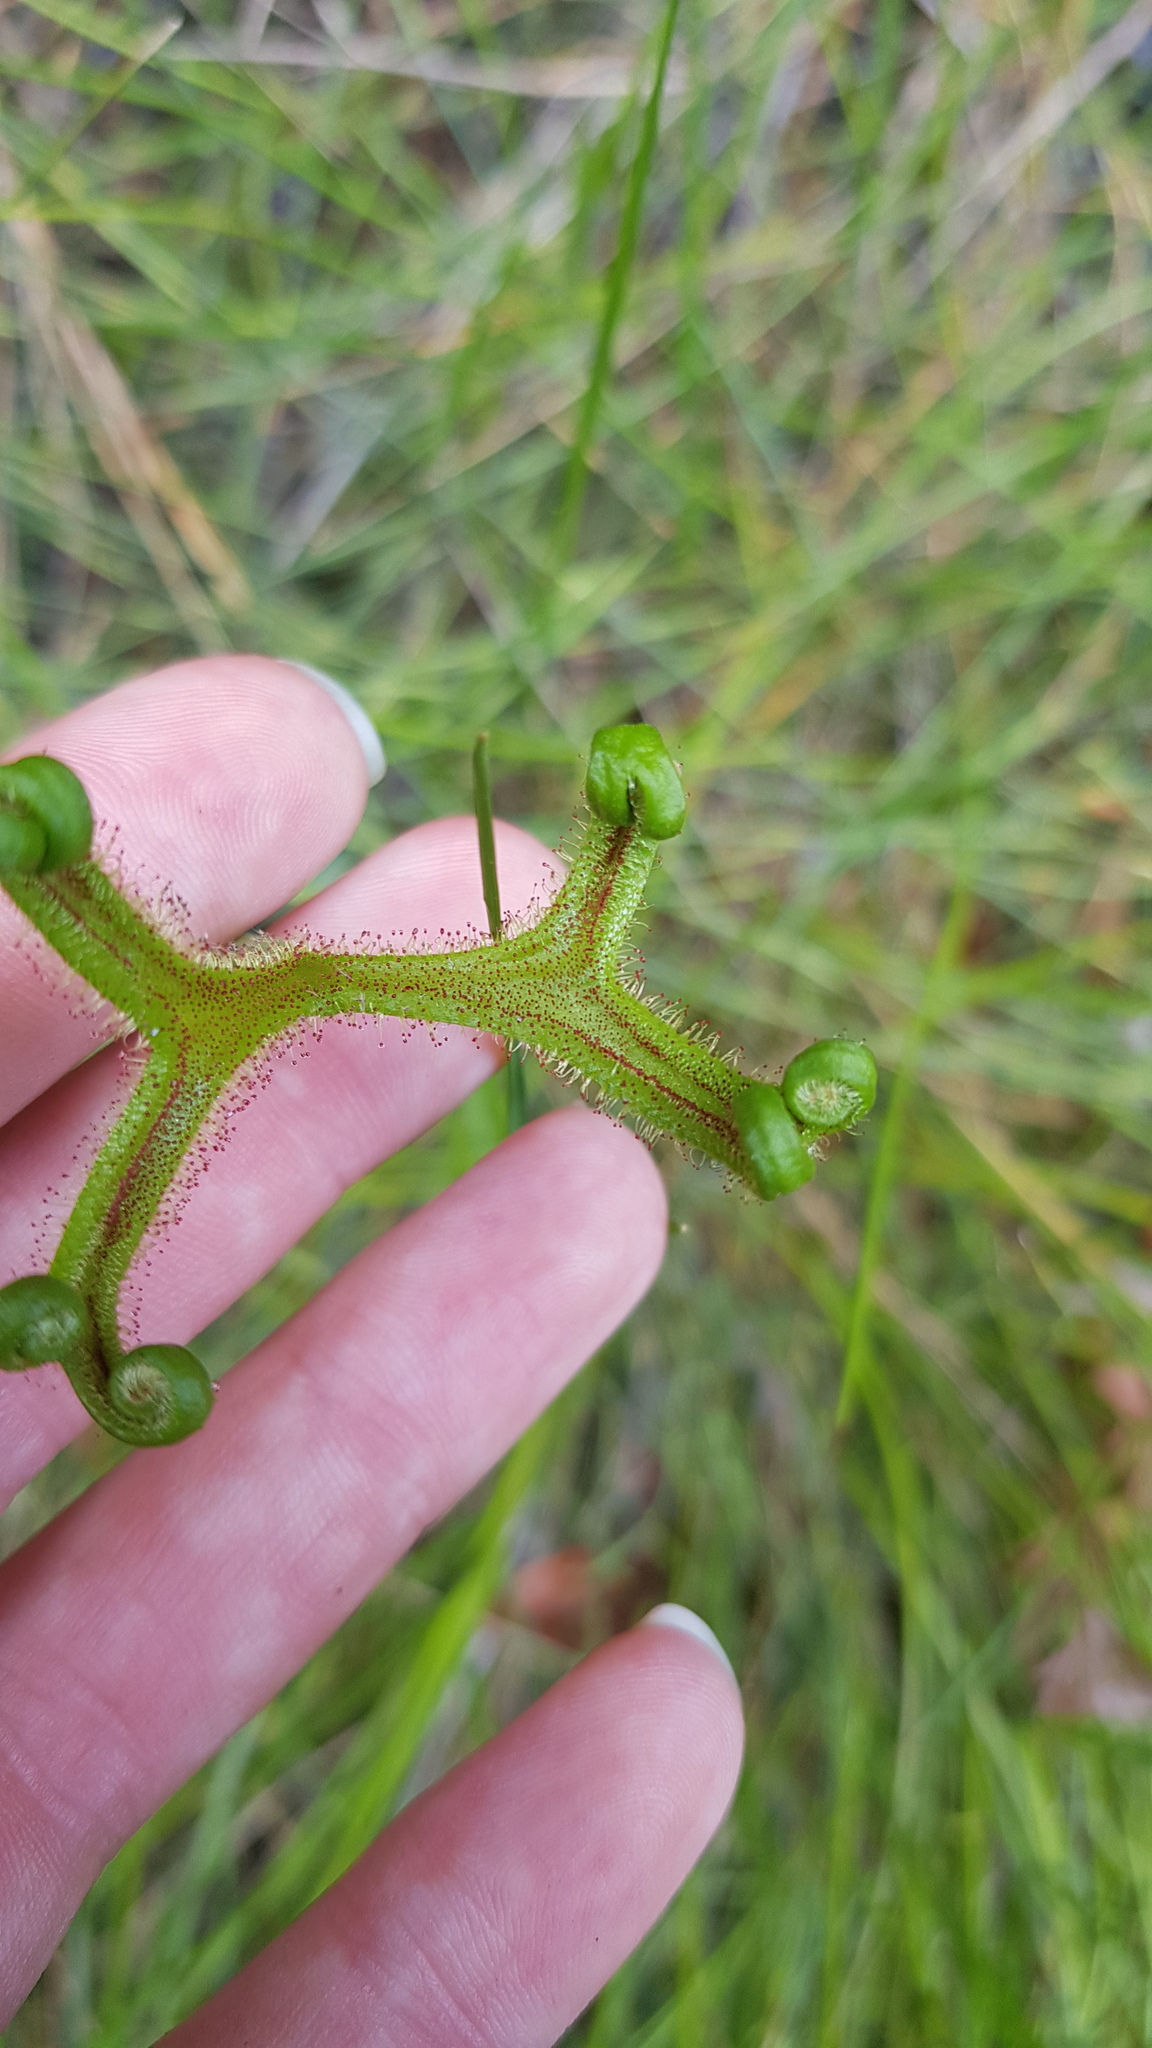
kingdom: Plantae
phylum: Tracheophyta
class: Magnoliopsida
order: Caryophyllales
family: Droseraceae
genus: Drosera
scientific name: Drosera binata
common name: Forked sundew
